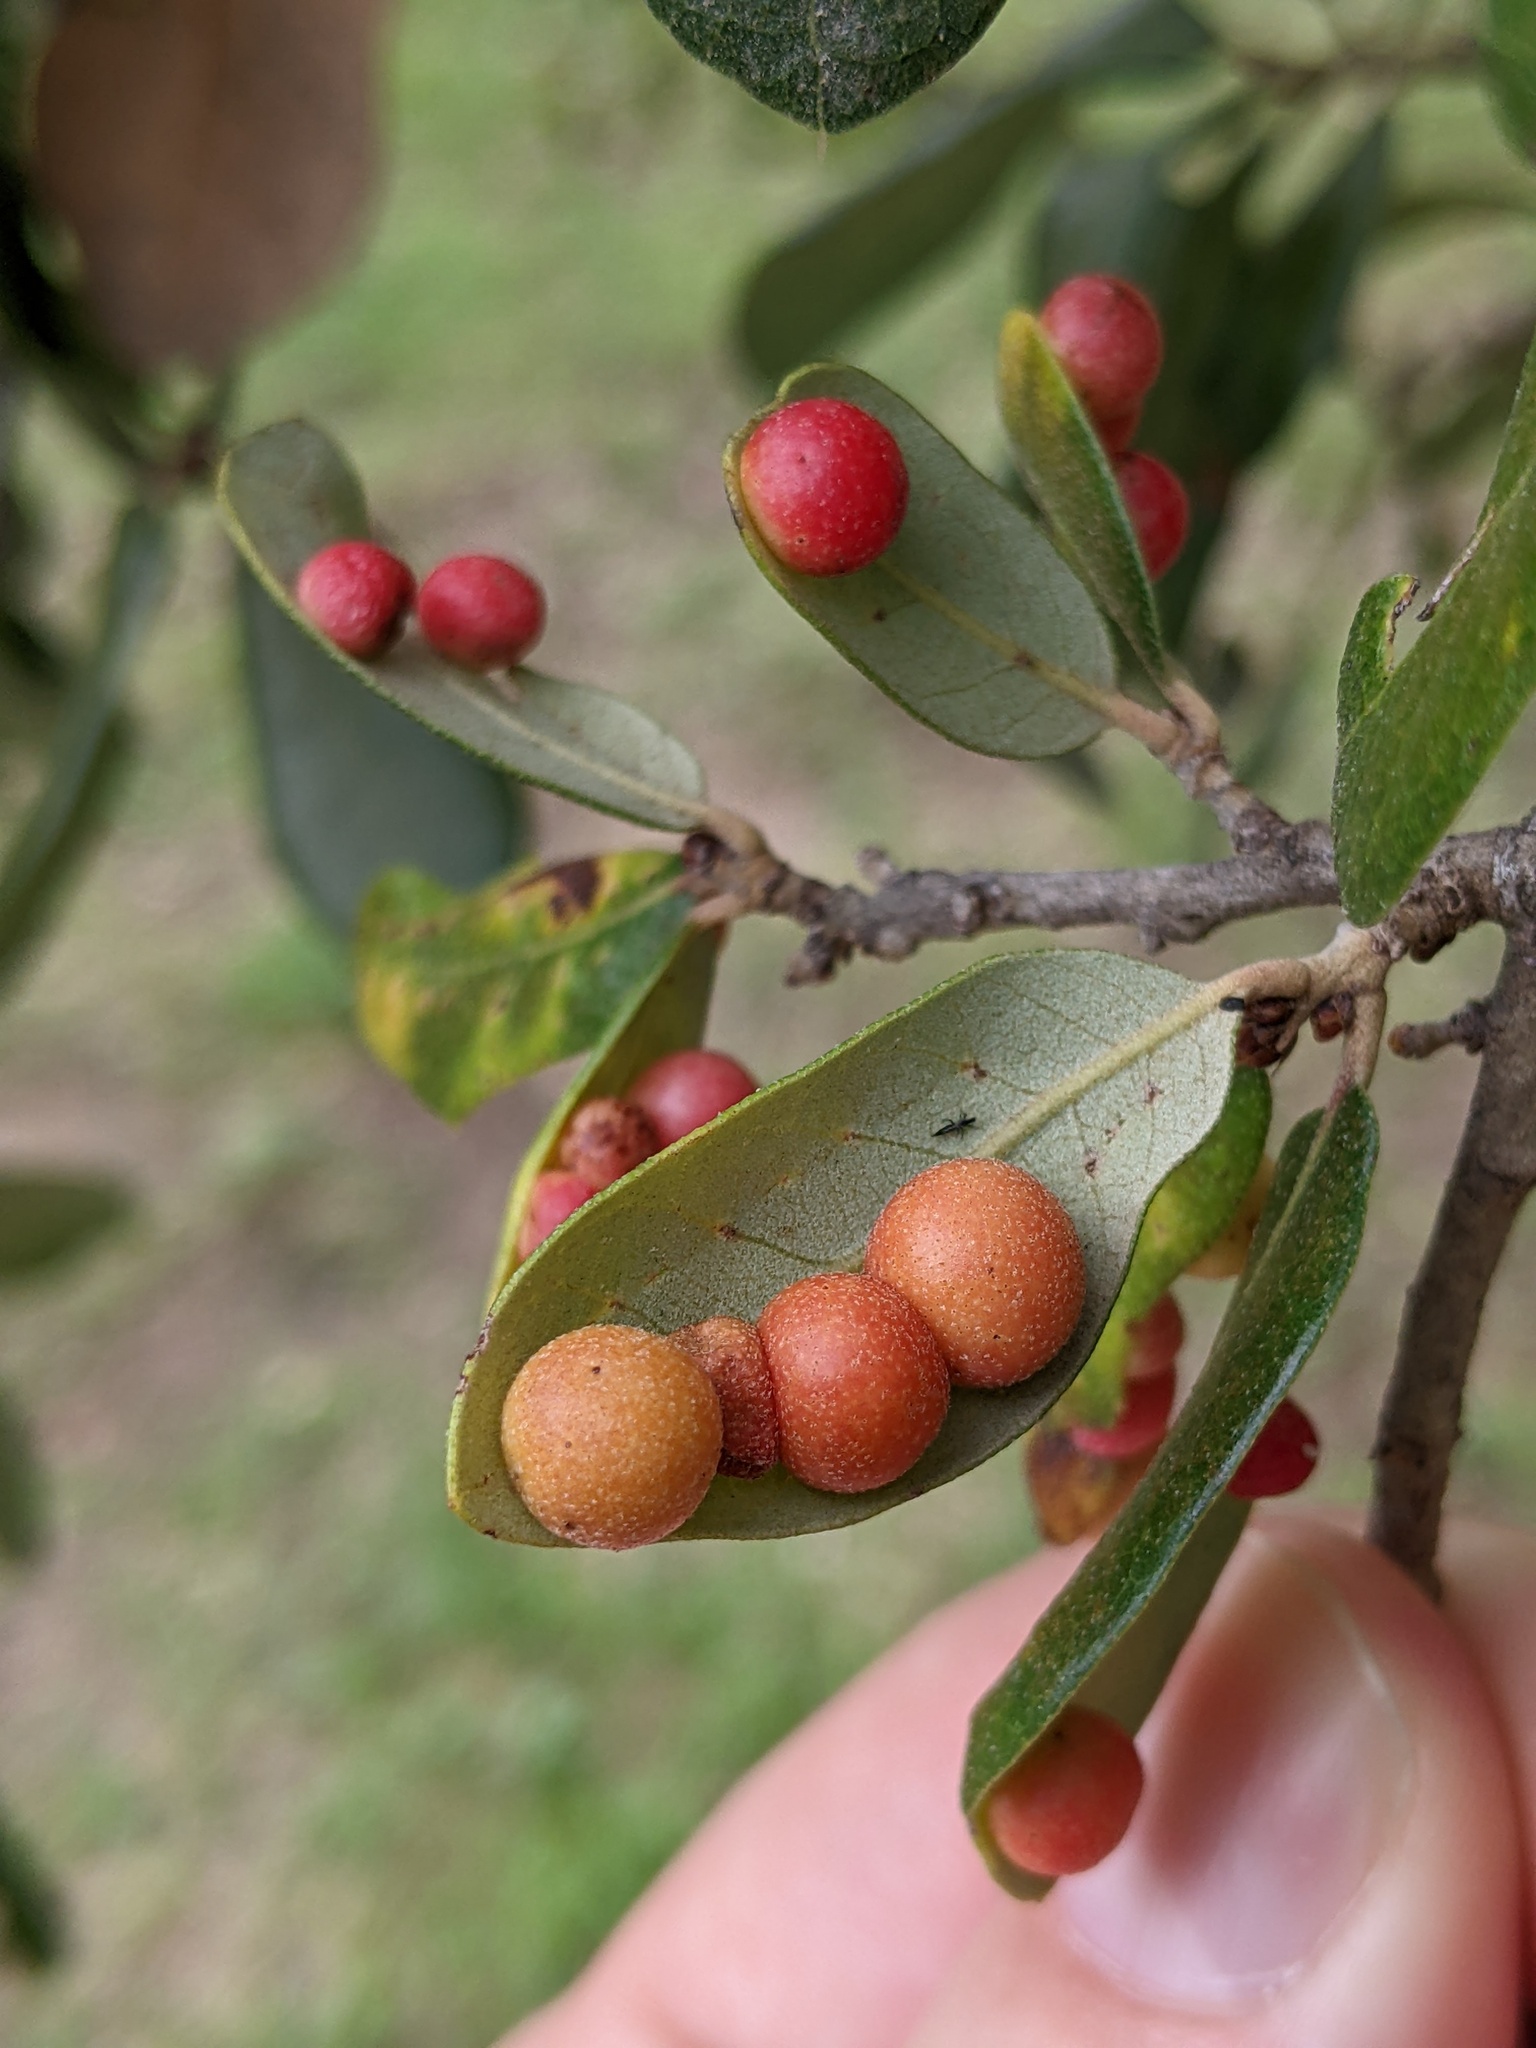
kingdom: Animalia
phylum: Arthropoda
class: Insecta
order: Hymenoptera
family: Cynipidae
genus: Belonocnema
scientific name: Belonocnema kinseyi
